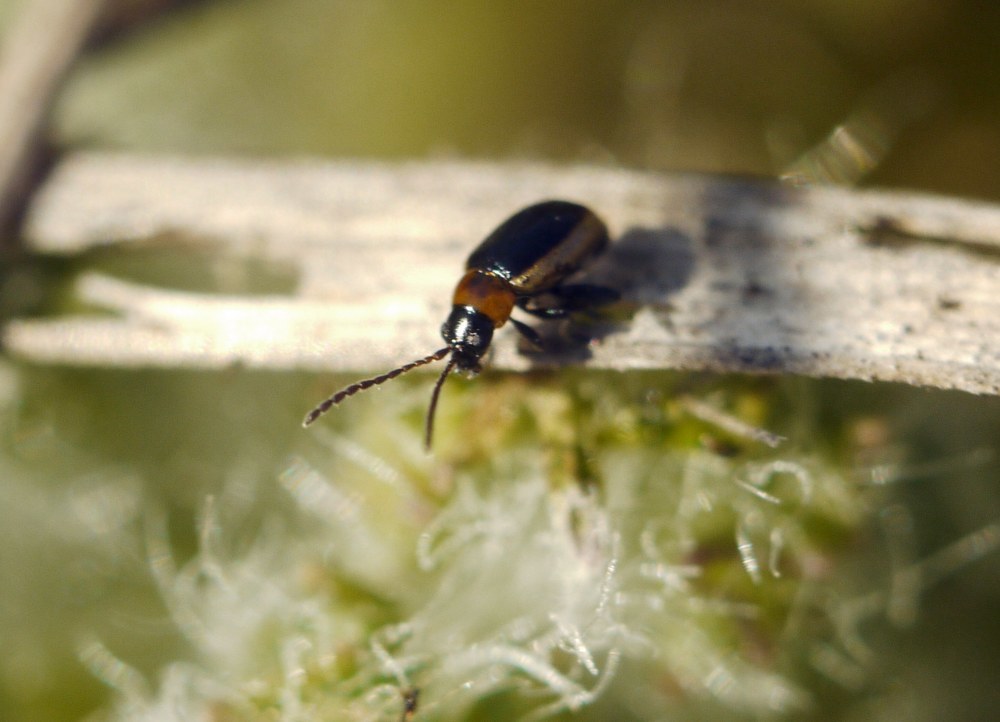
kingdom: Animalia
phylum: Arthropoda
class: Insecta
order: Coleoptera
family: Chrysomelidae
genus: Longitarsus
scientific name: Longitarsus dorsalis
